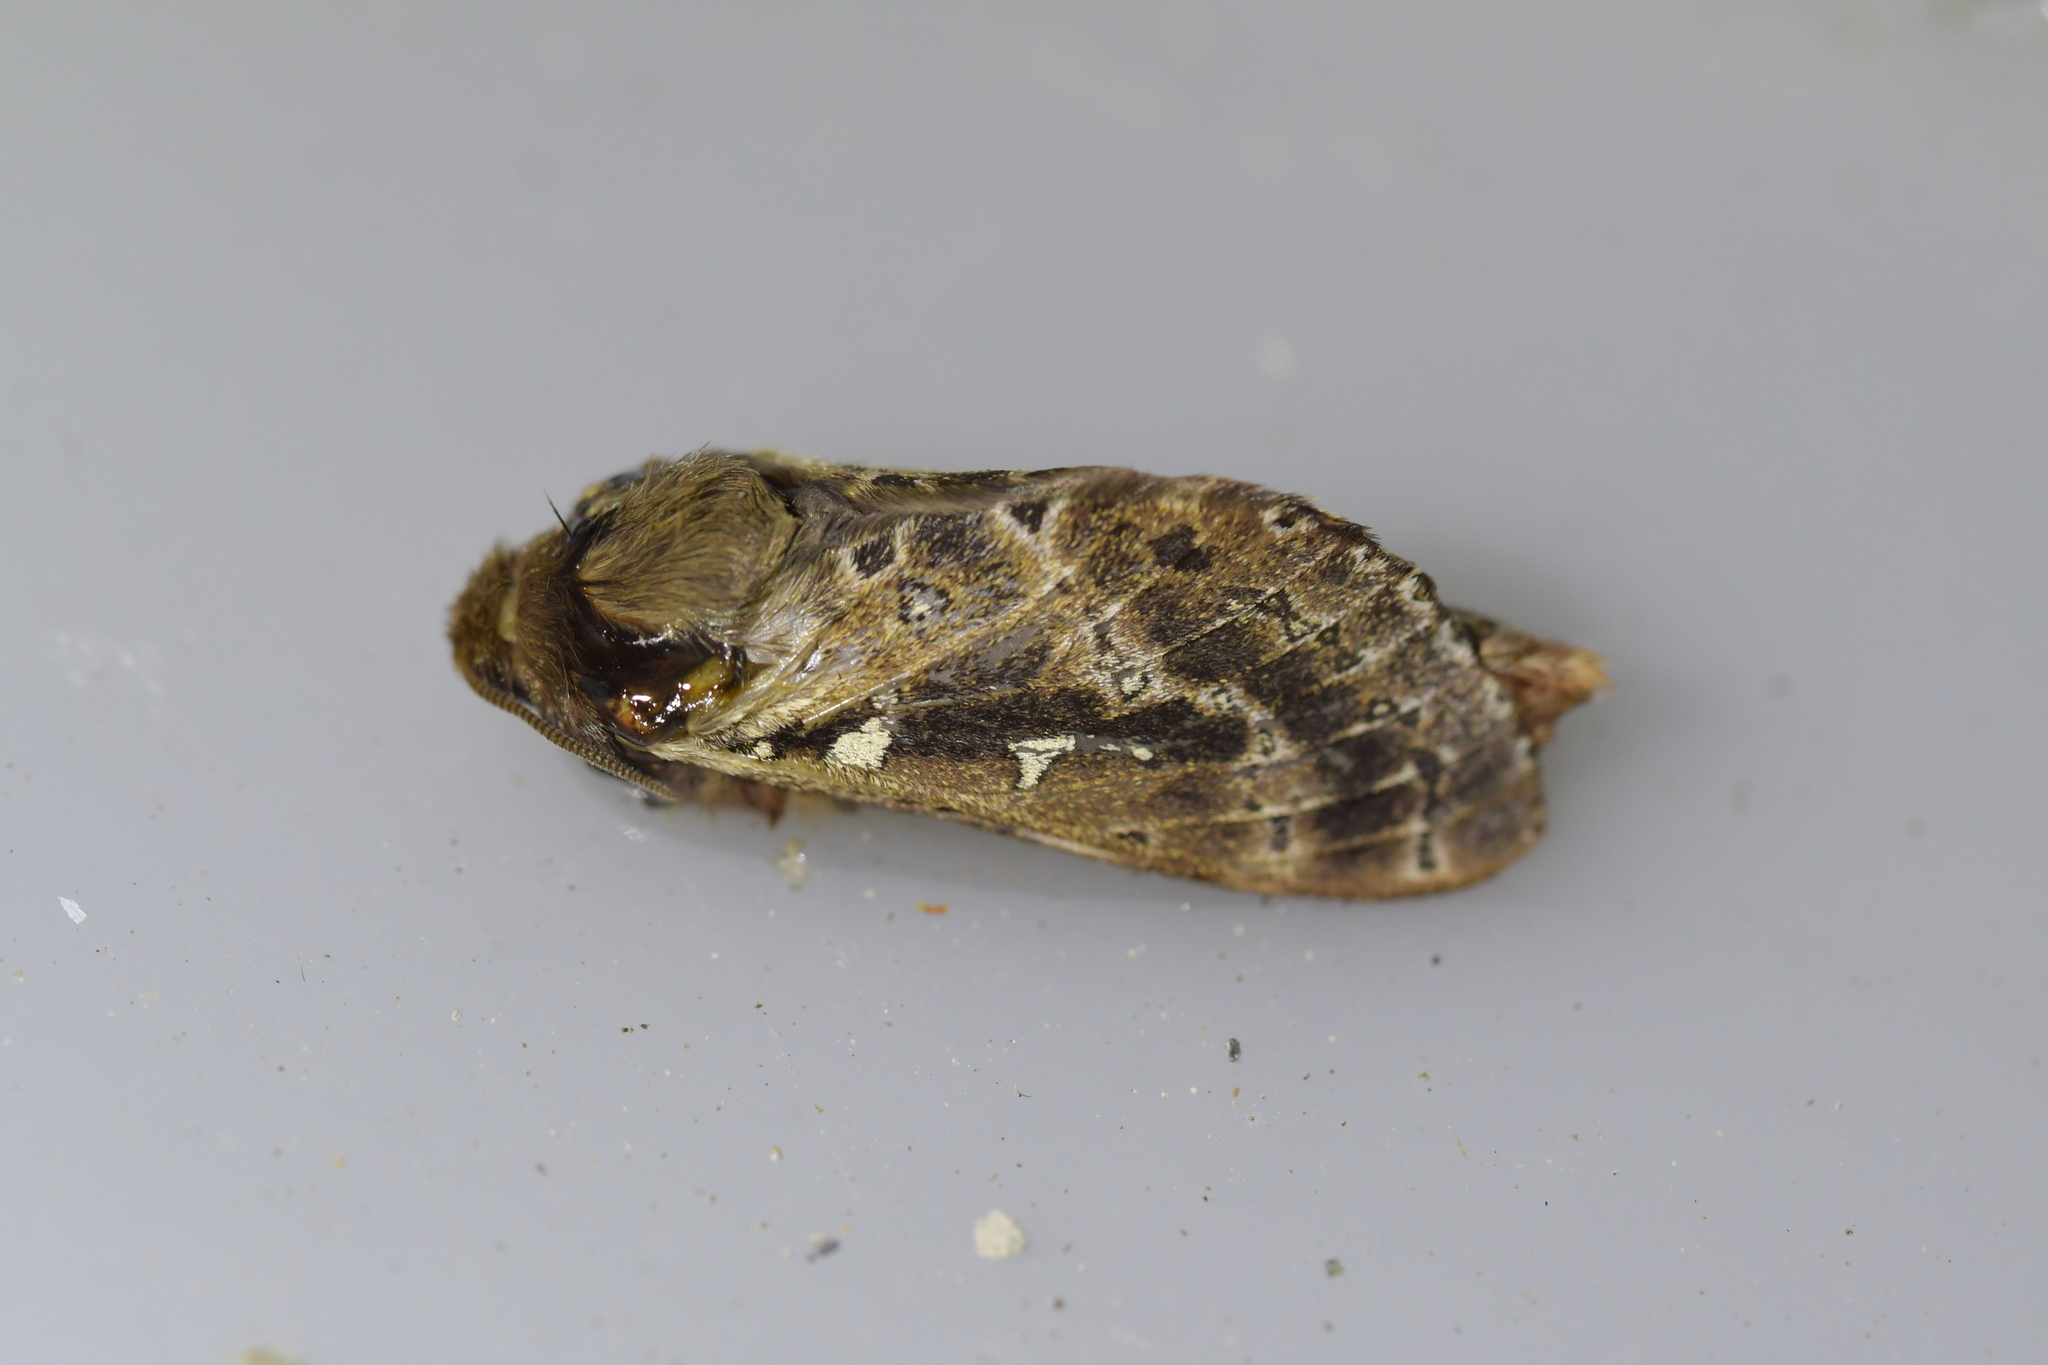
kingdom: Animalia
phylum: Arthropoda
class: Insecta
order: Lepidoptera
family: Hepialidae
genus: Wiseana
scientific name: Wiseana cervinata
